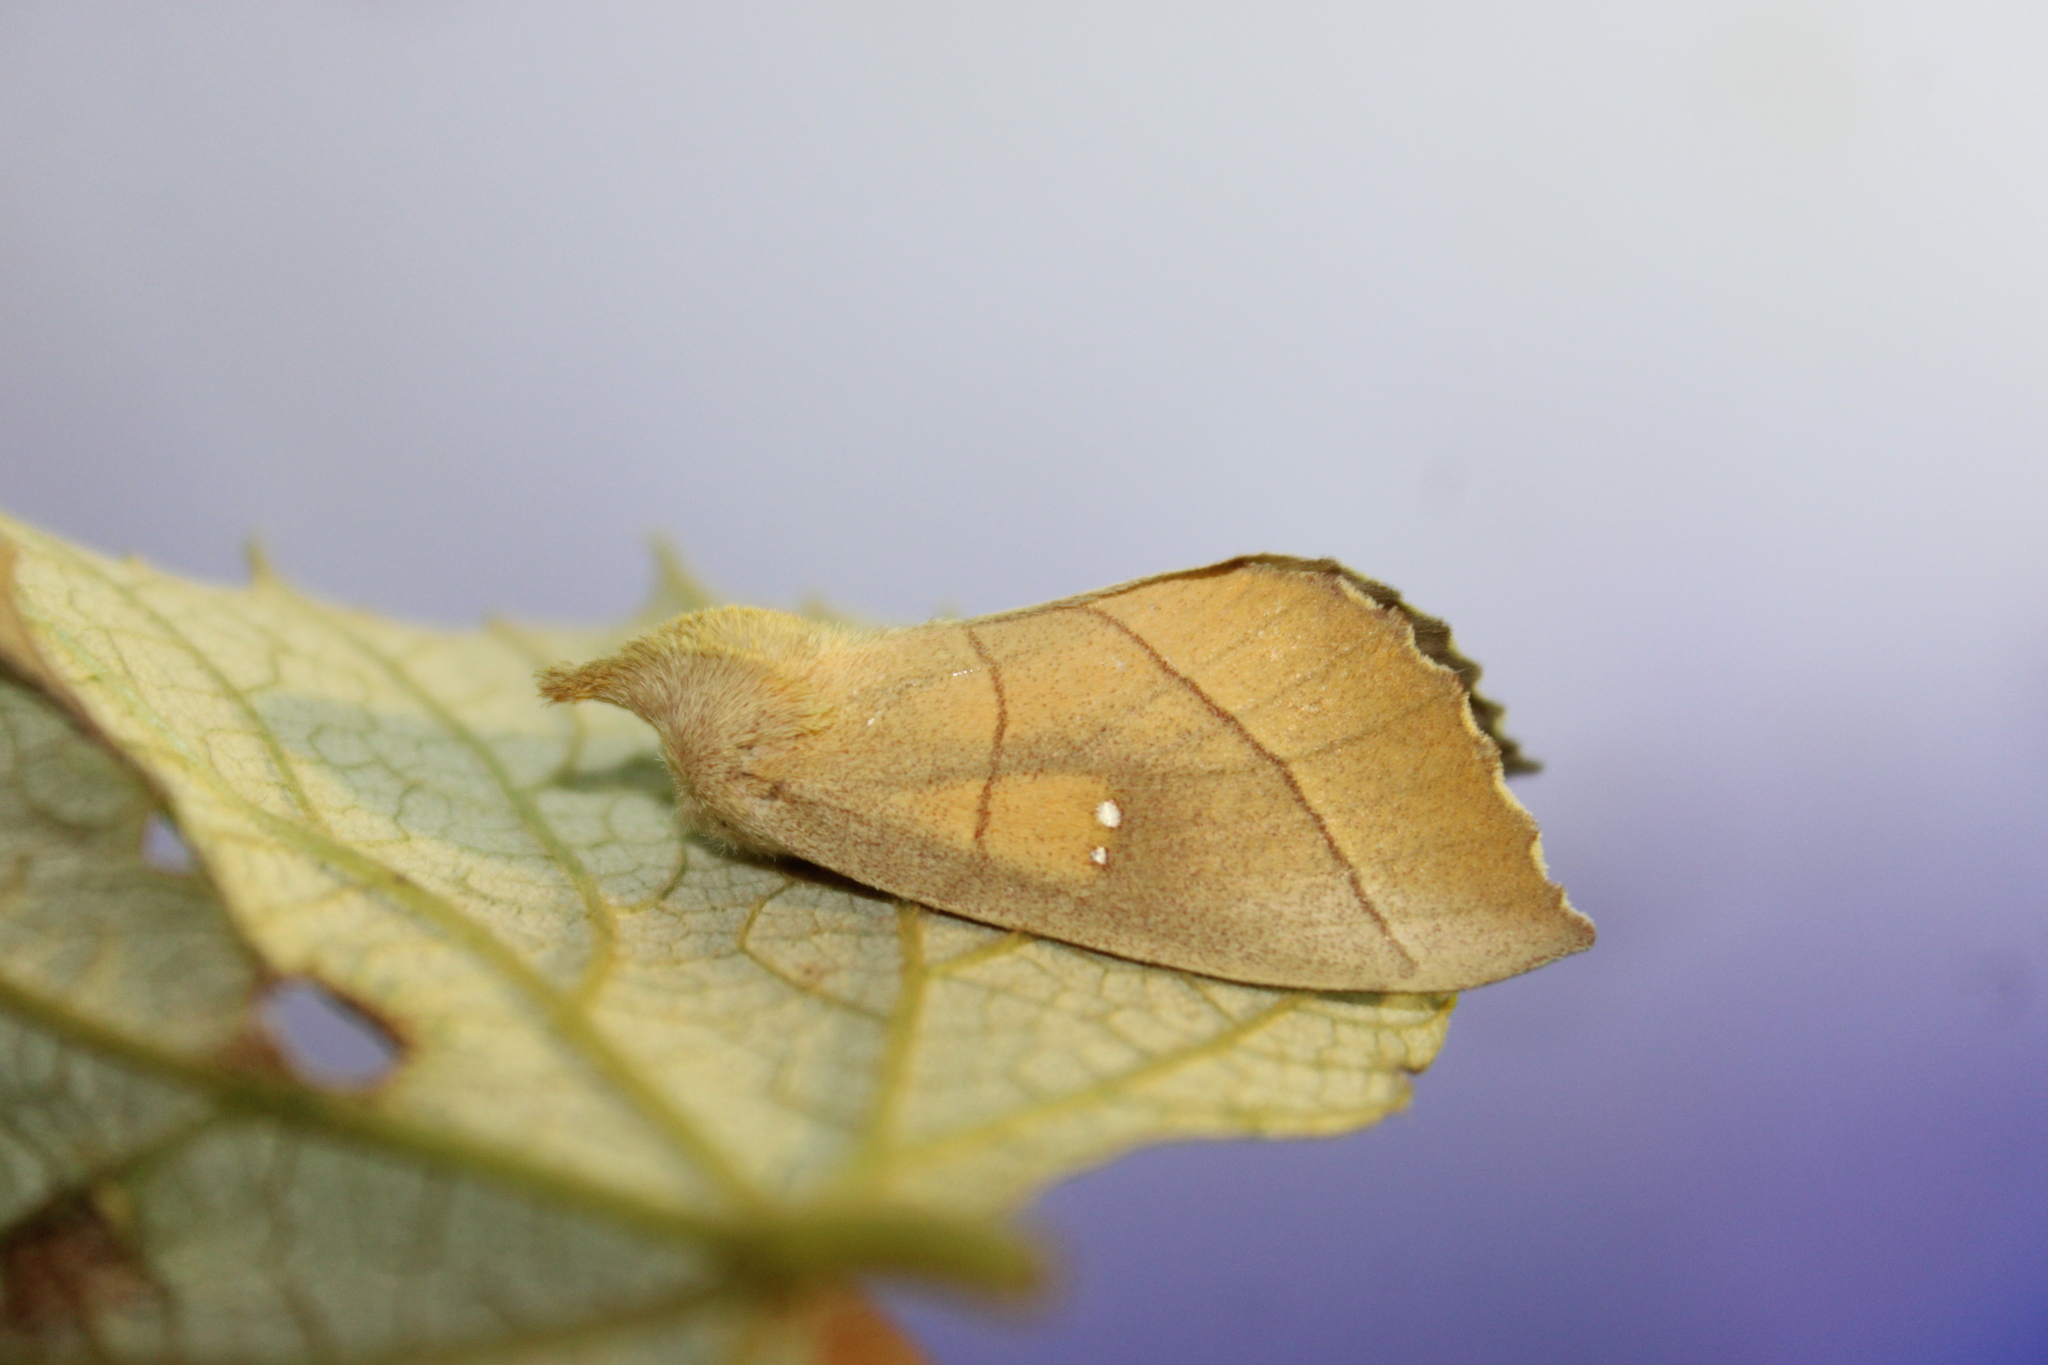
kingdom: Animalia
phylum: Arthropoda
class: Insecta
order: Lepidoptera
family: Notodontidae
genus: Nadata
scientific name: Nadata gibbosa
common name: White-dotted prominent
